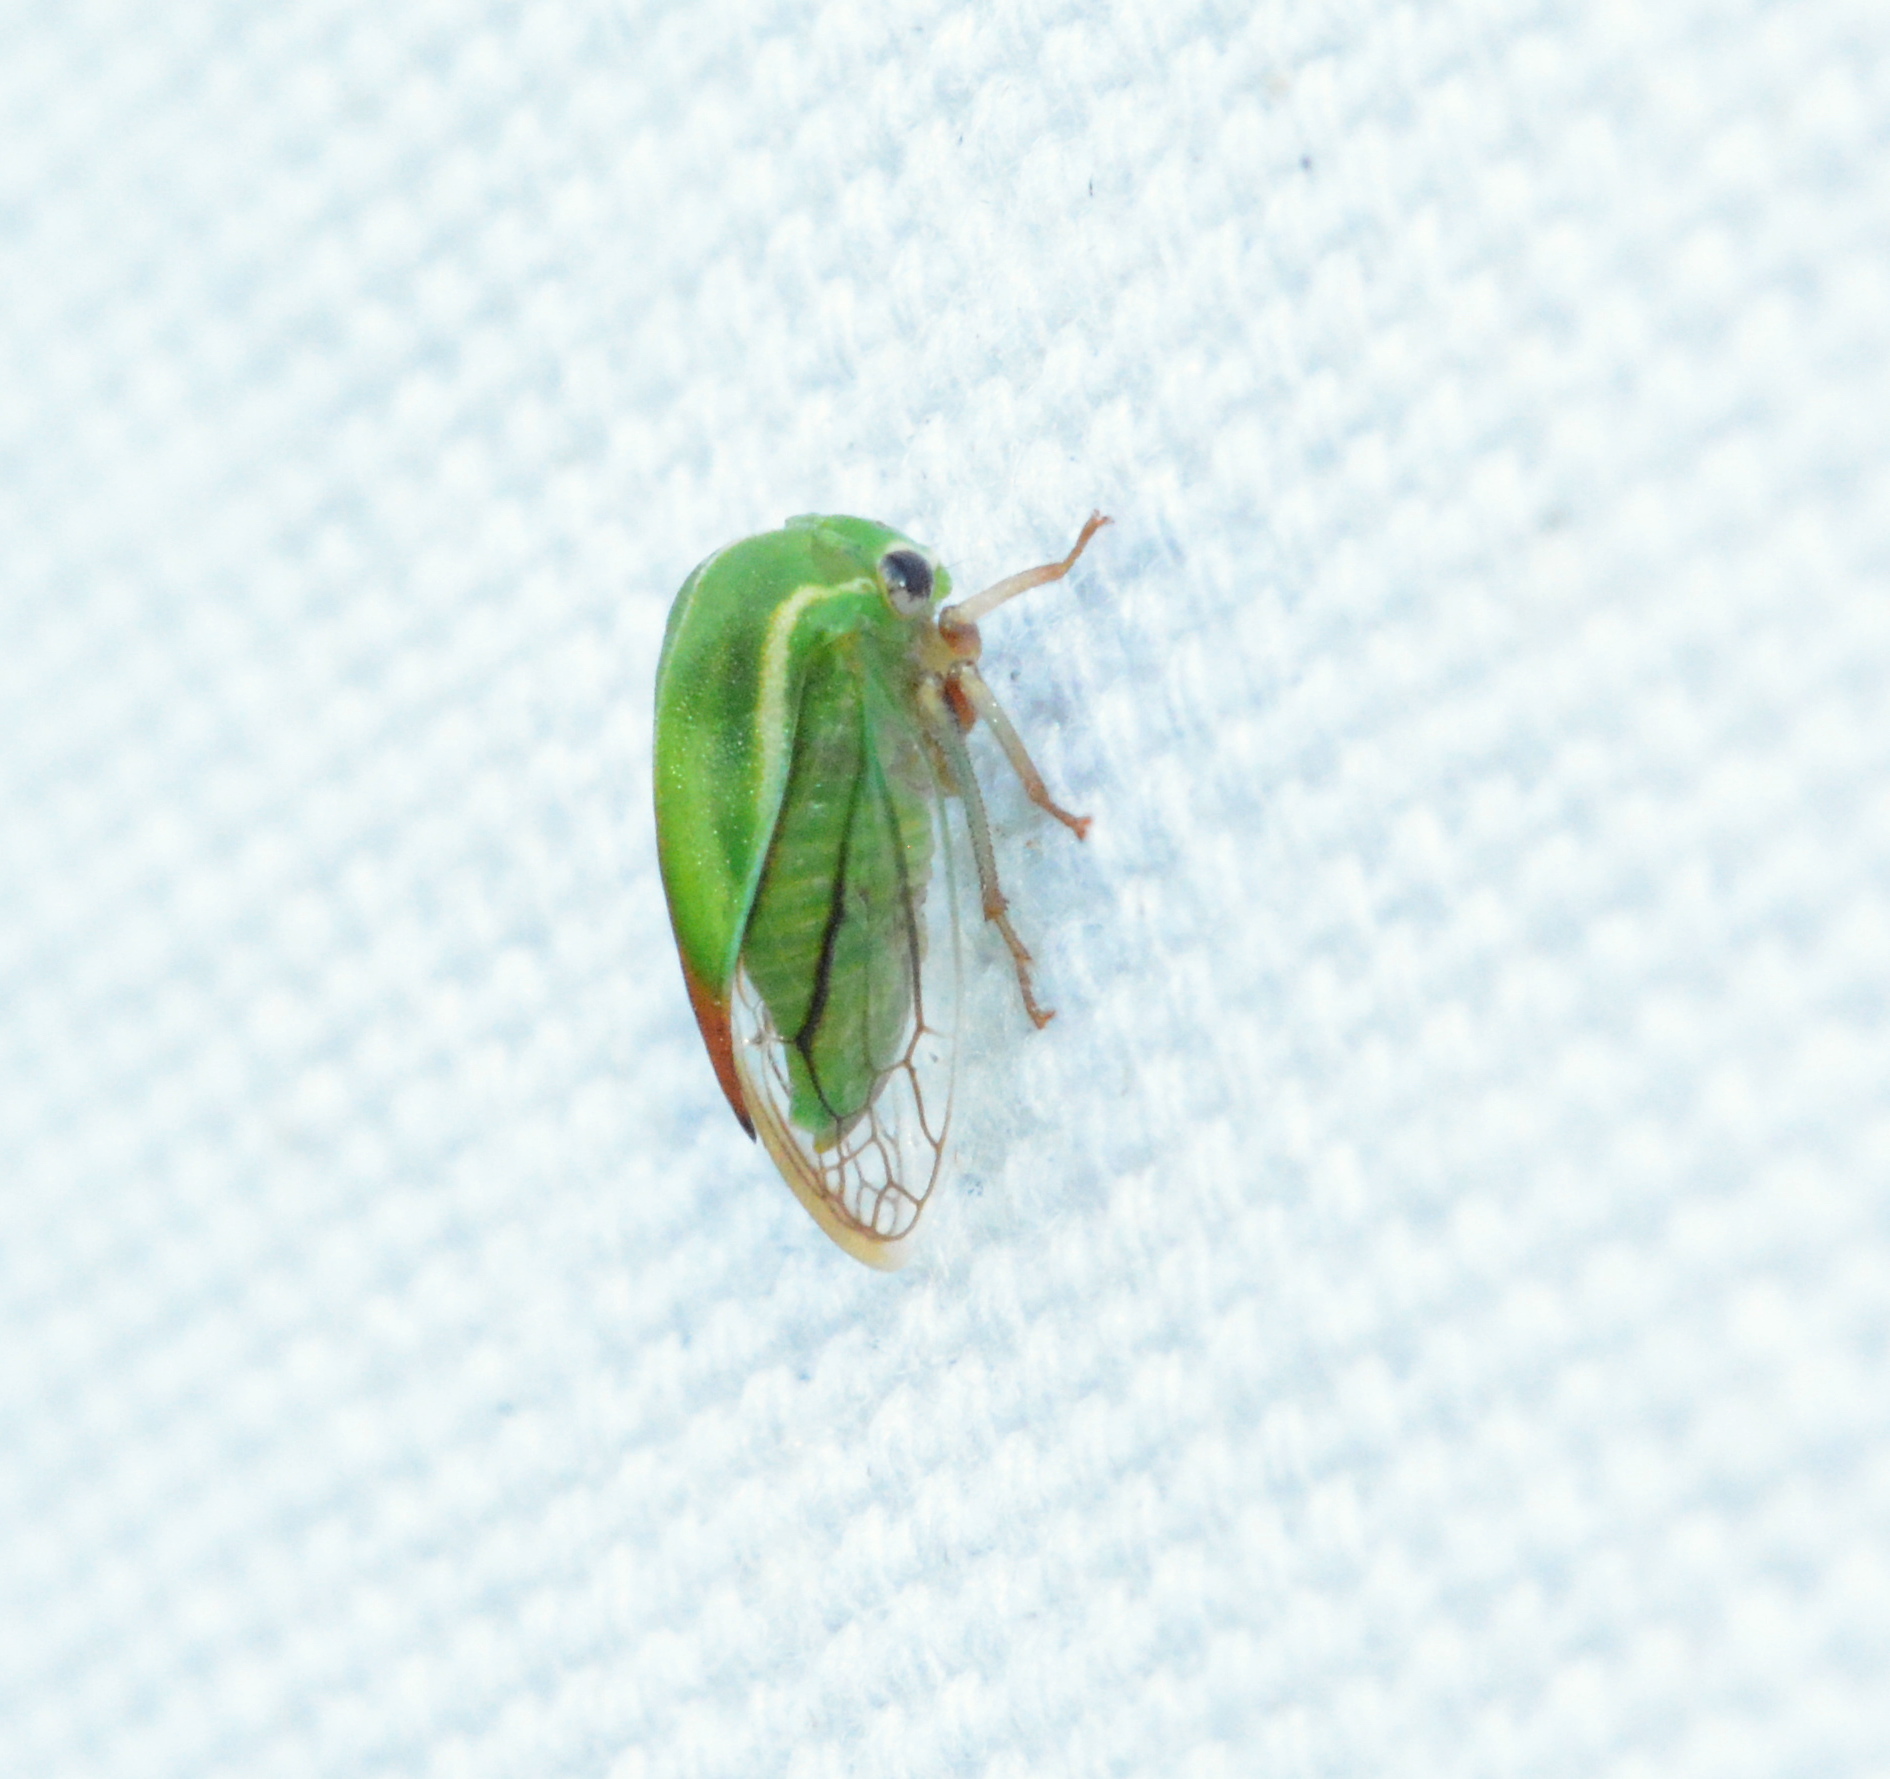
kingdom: Animalia
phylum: Arthropoda
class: Insecta
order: Hemiptera
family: Membracidae
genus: Tortistilus
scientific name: Tortistilus lateralis
